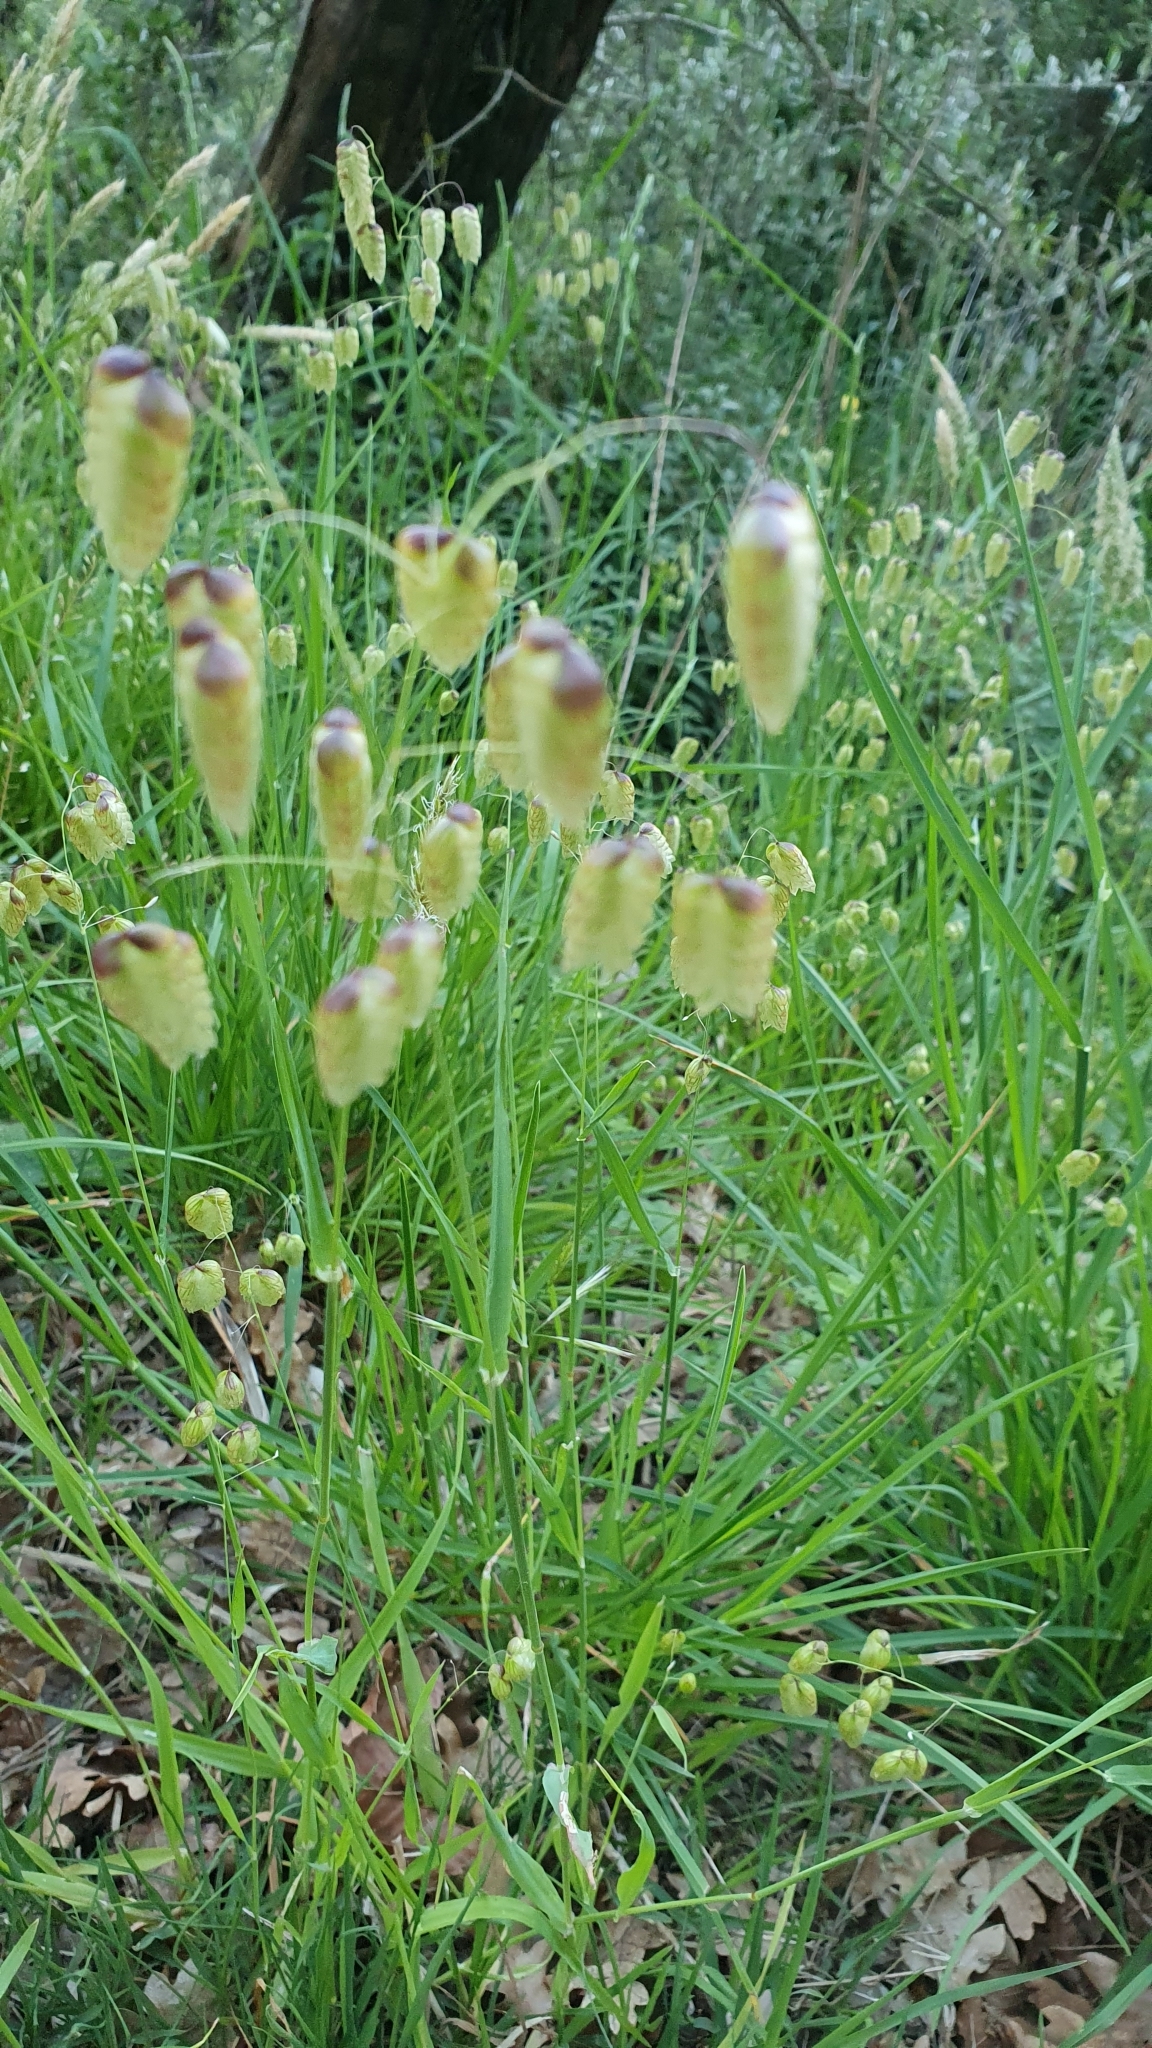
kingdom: Plantae
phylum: Tracheophyta
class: Liliopsida
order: Poales
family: Poaceae
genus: Briza
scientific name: Briza maxima
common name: Big quakinggrass
